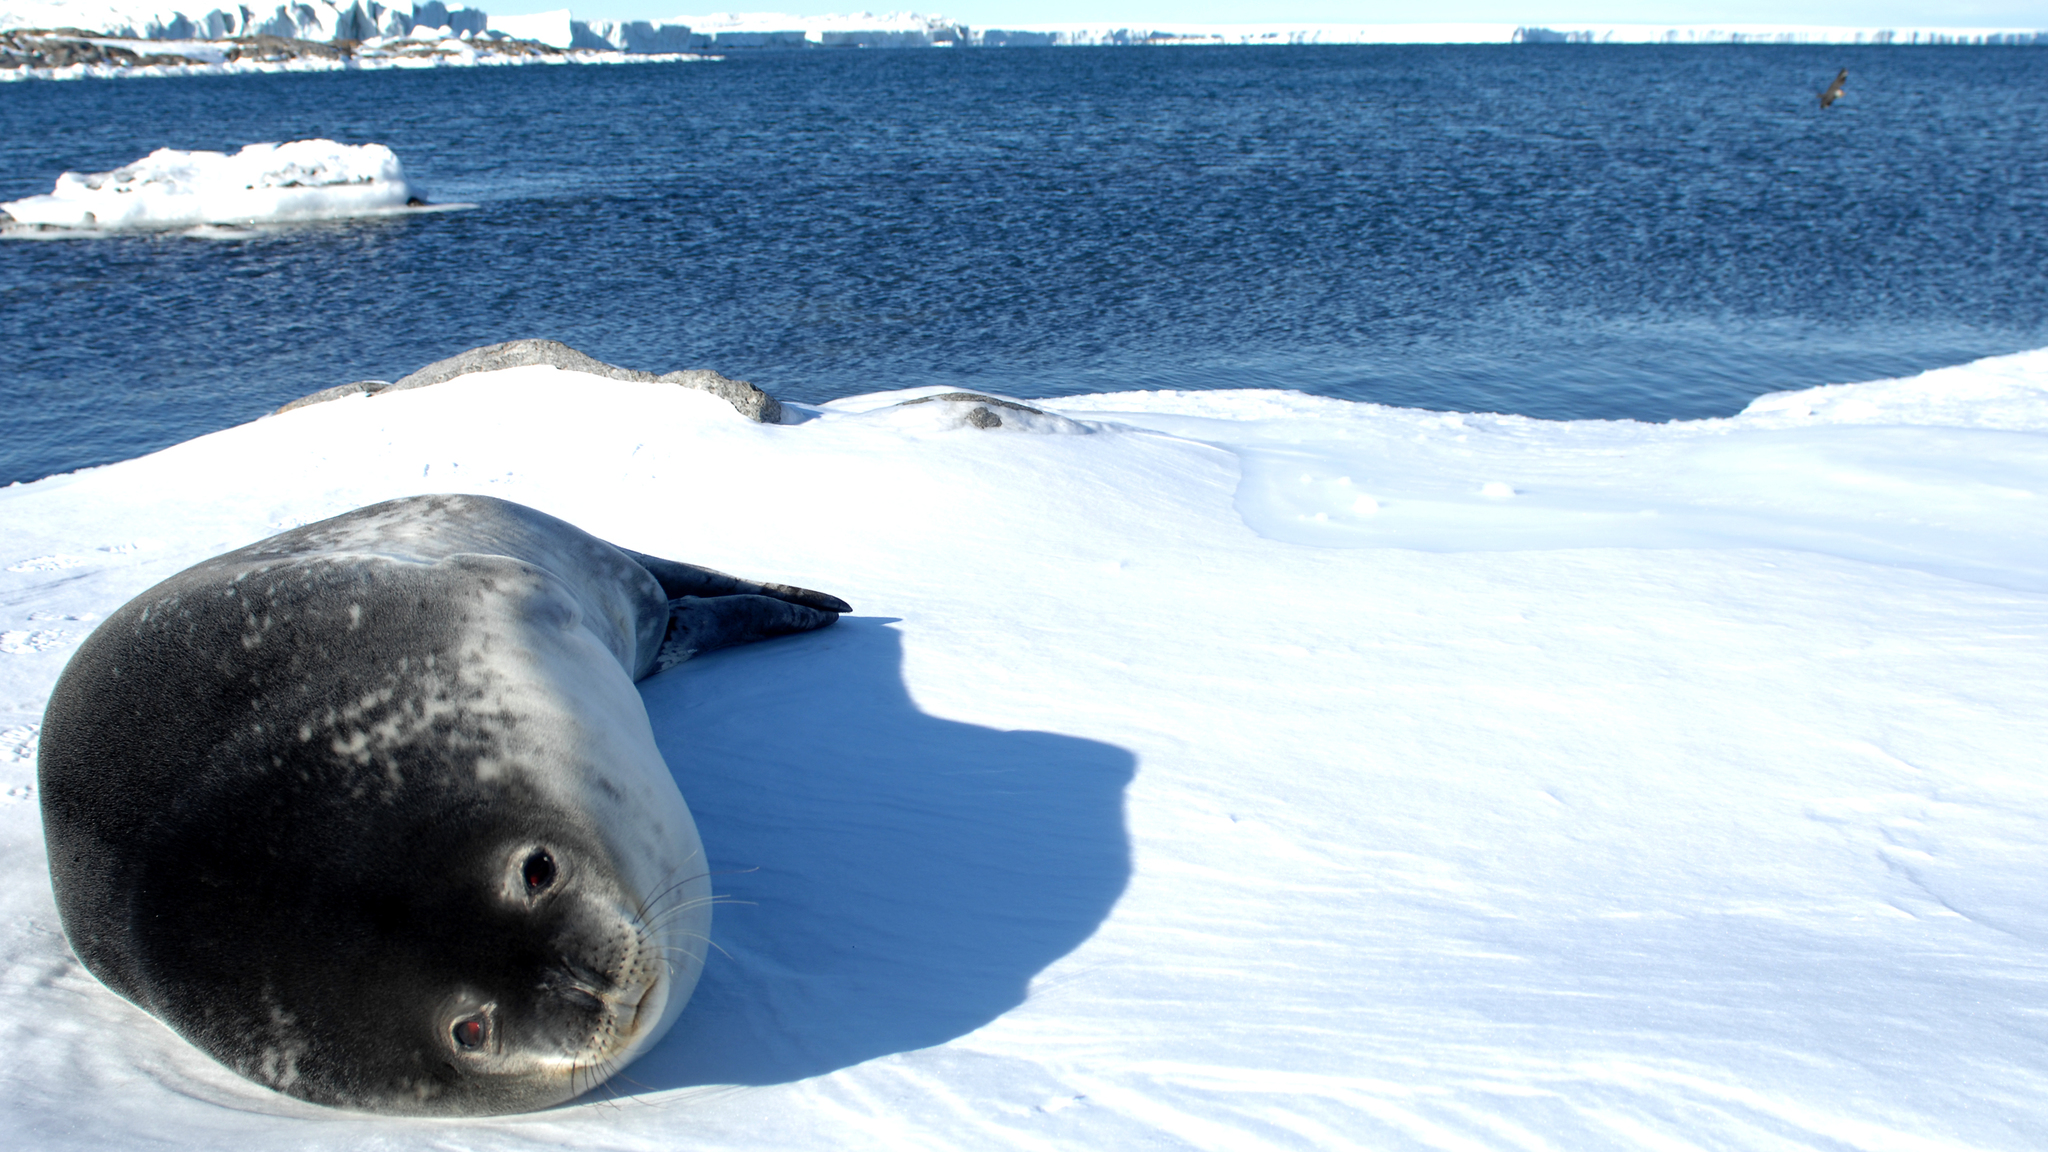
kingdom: Animalia
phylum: Chordata
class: Mammalia
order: Carnivora
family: Phocidae
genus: Leptonychotes
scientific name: Leptonychotes weddellii
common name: Weddell seal
